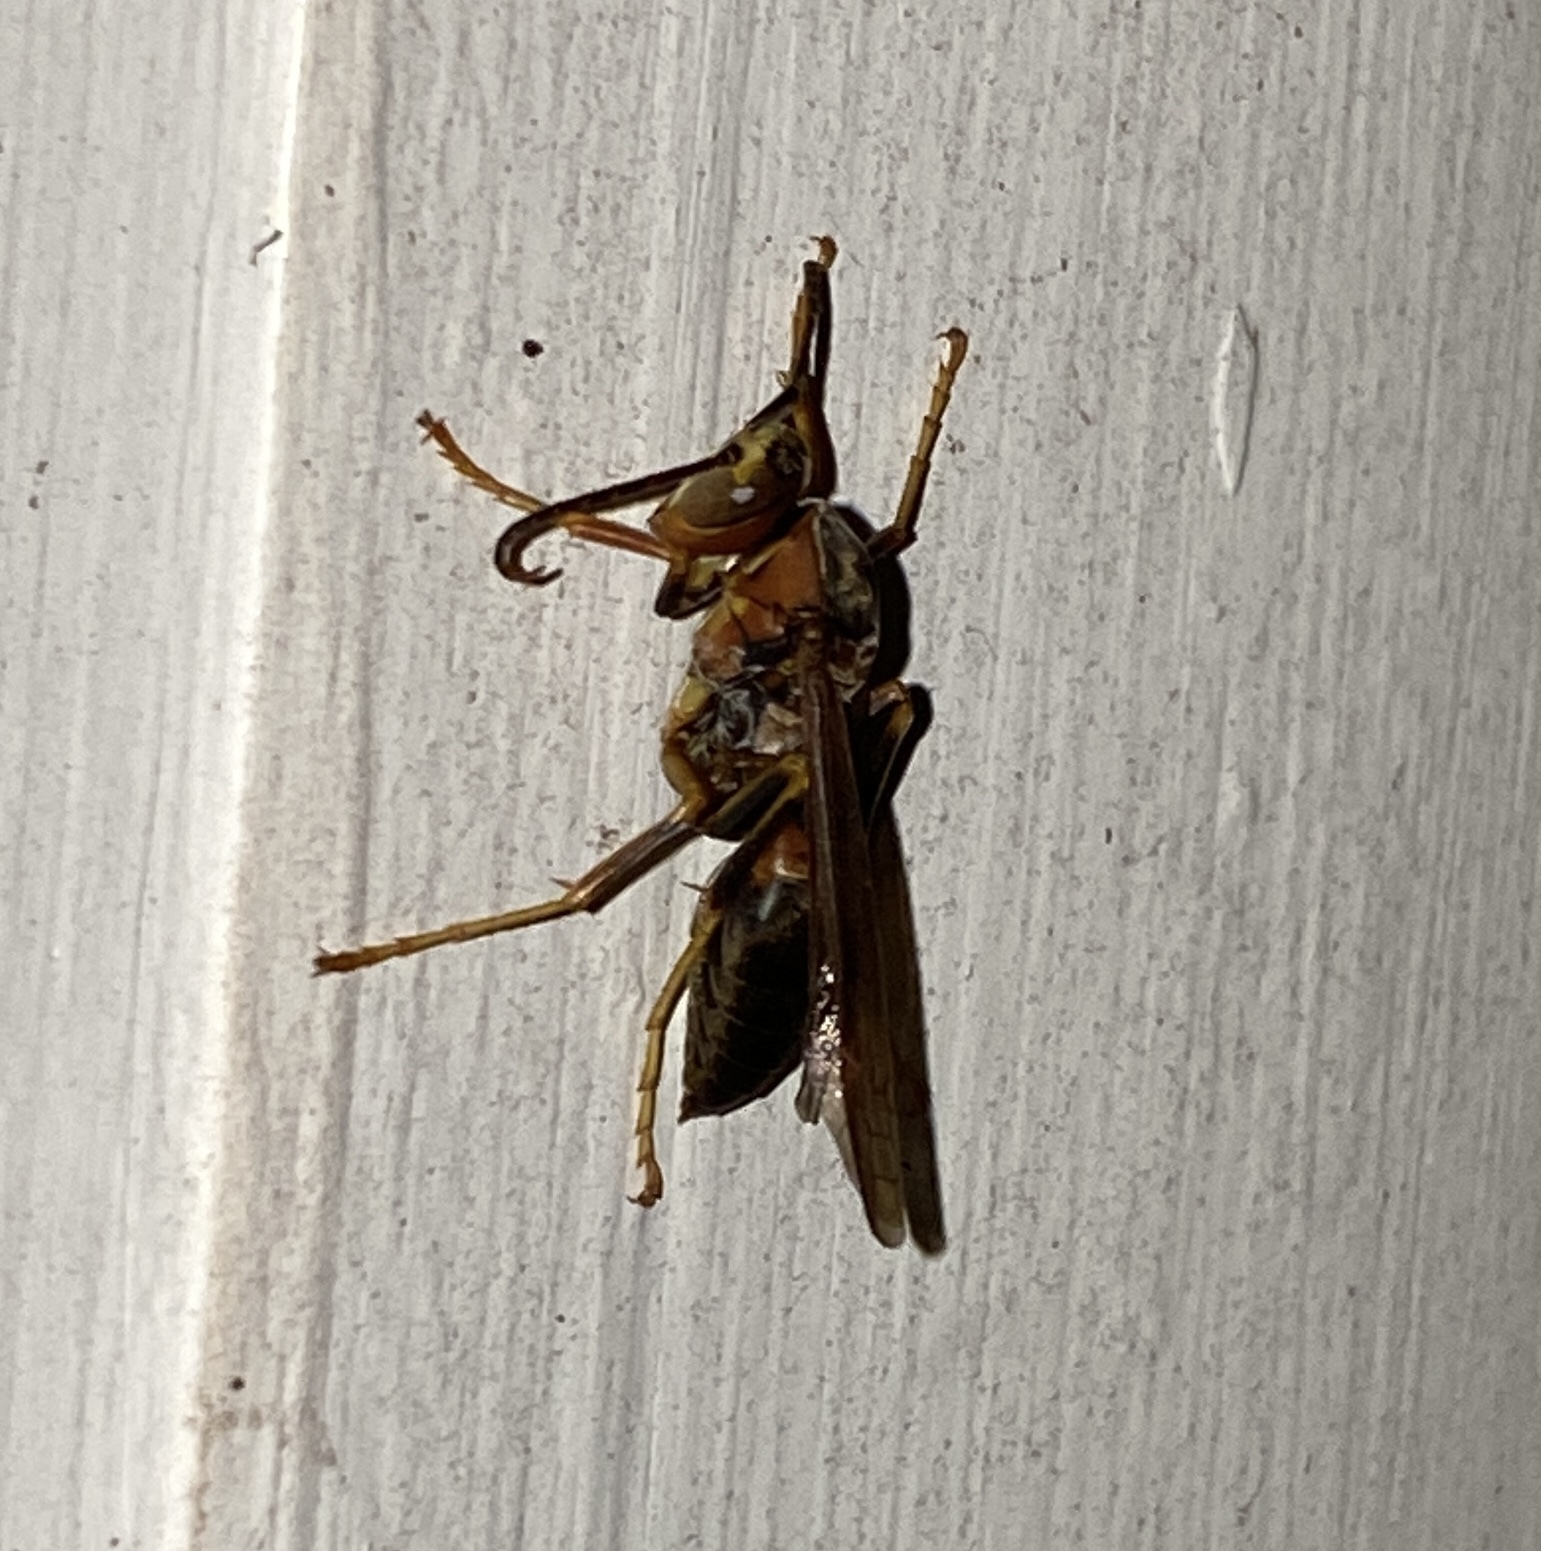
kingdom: Animalia
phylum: Arthropoda
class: Insecta
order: Hymenoptera
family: Eumenidae
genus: Polistes
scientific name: Polistes metricus
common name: Metric paper wasp
